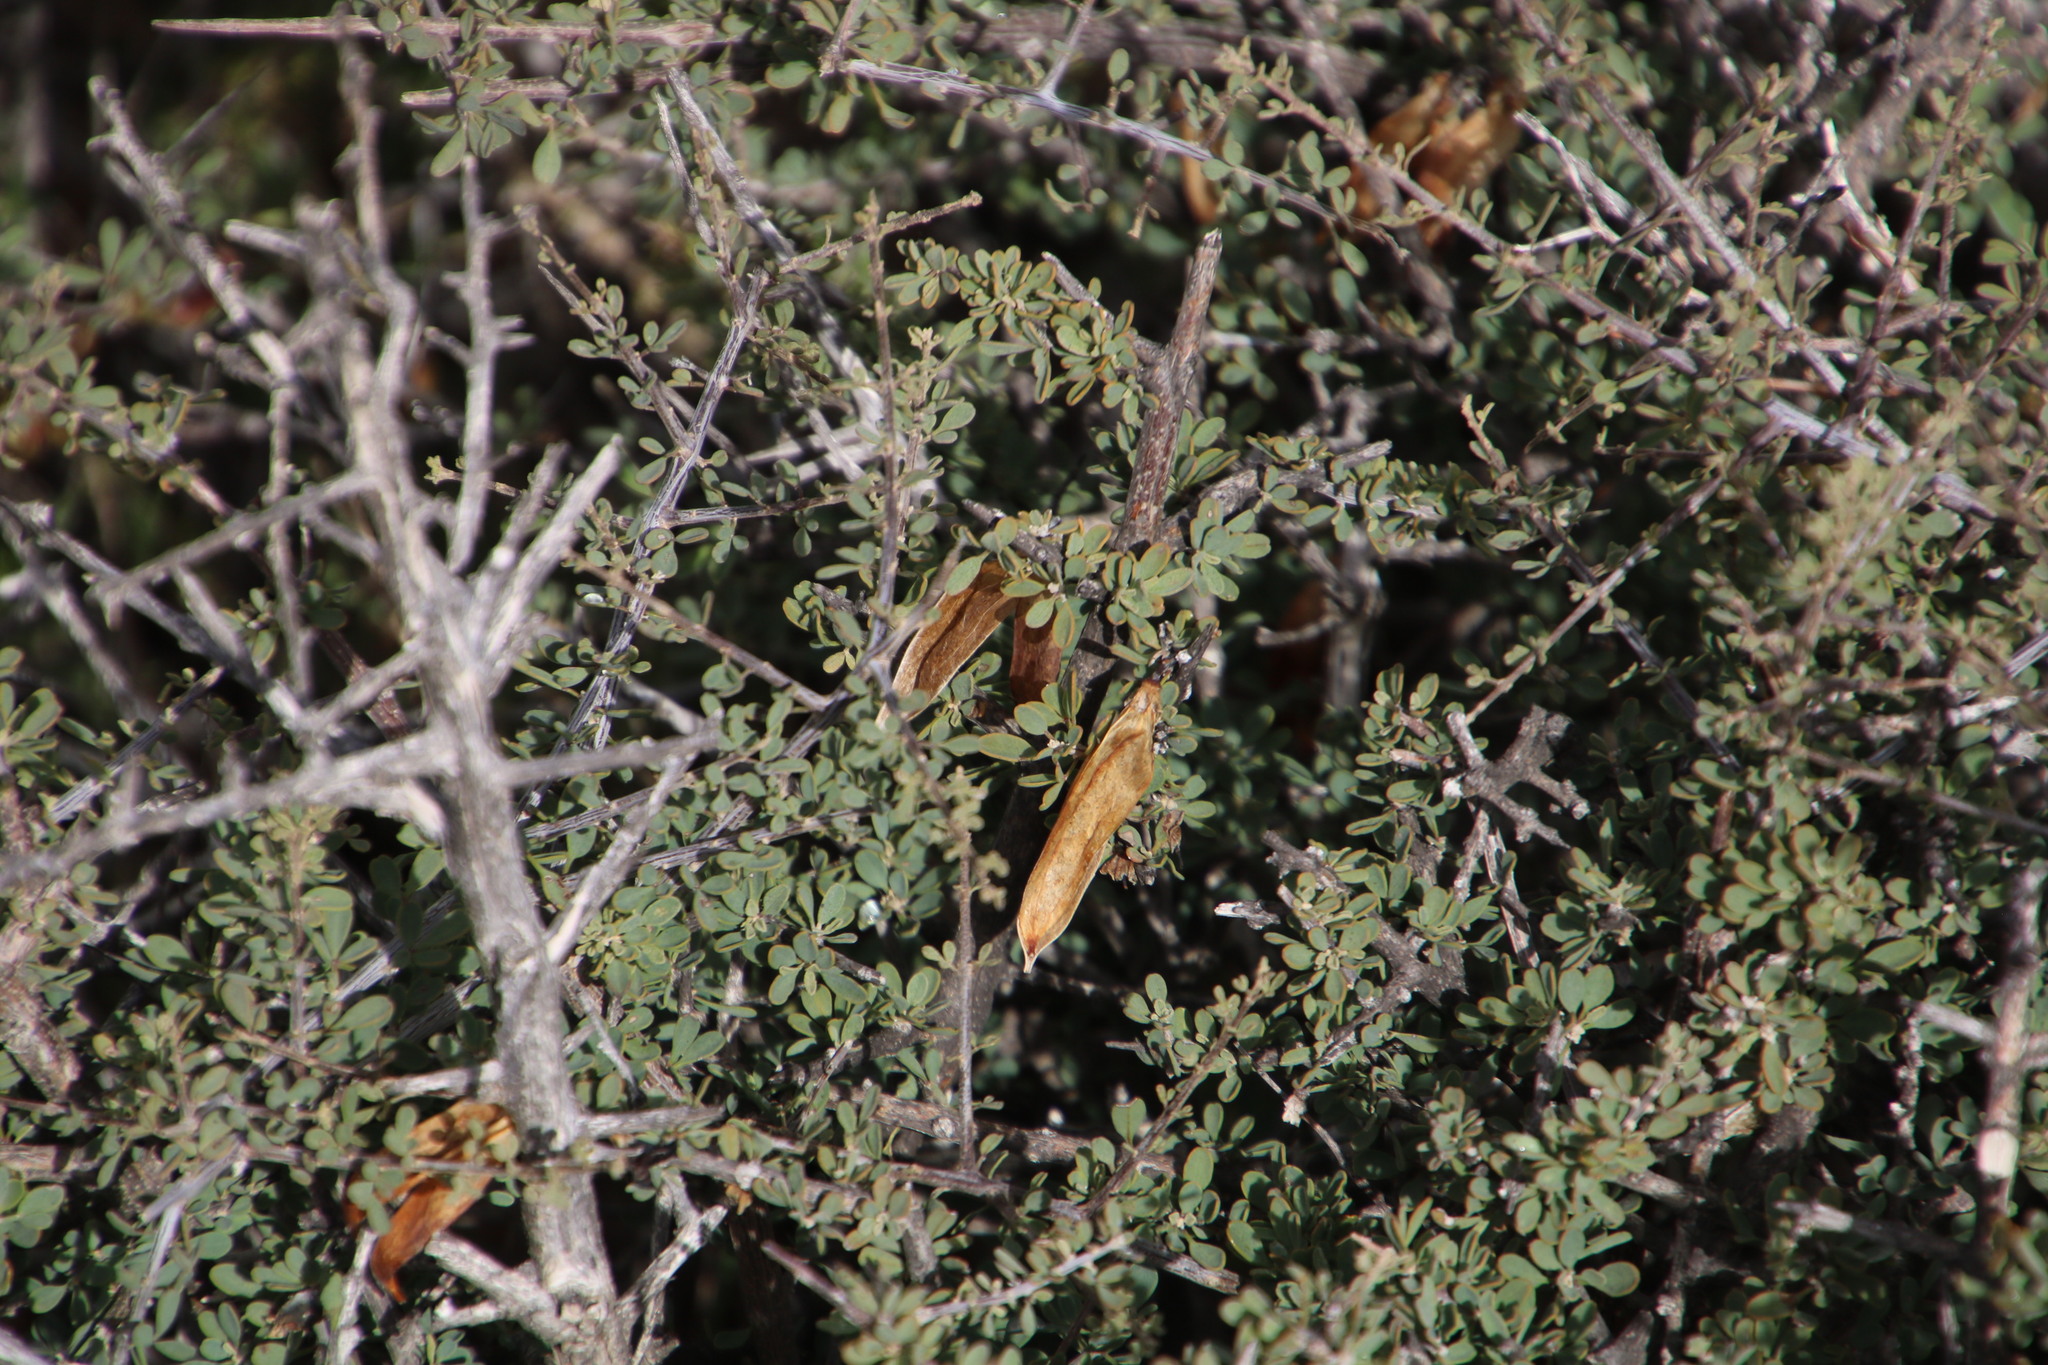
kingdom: Plantae
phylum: Tracheophyta
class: Magnoliopsida
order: Lamiales
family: Bignoniaceae
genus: Rhigozum
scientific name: Rhigozum obovatum
